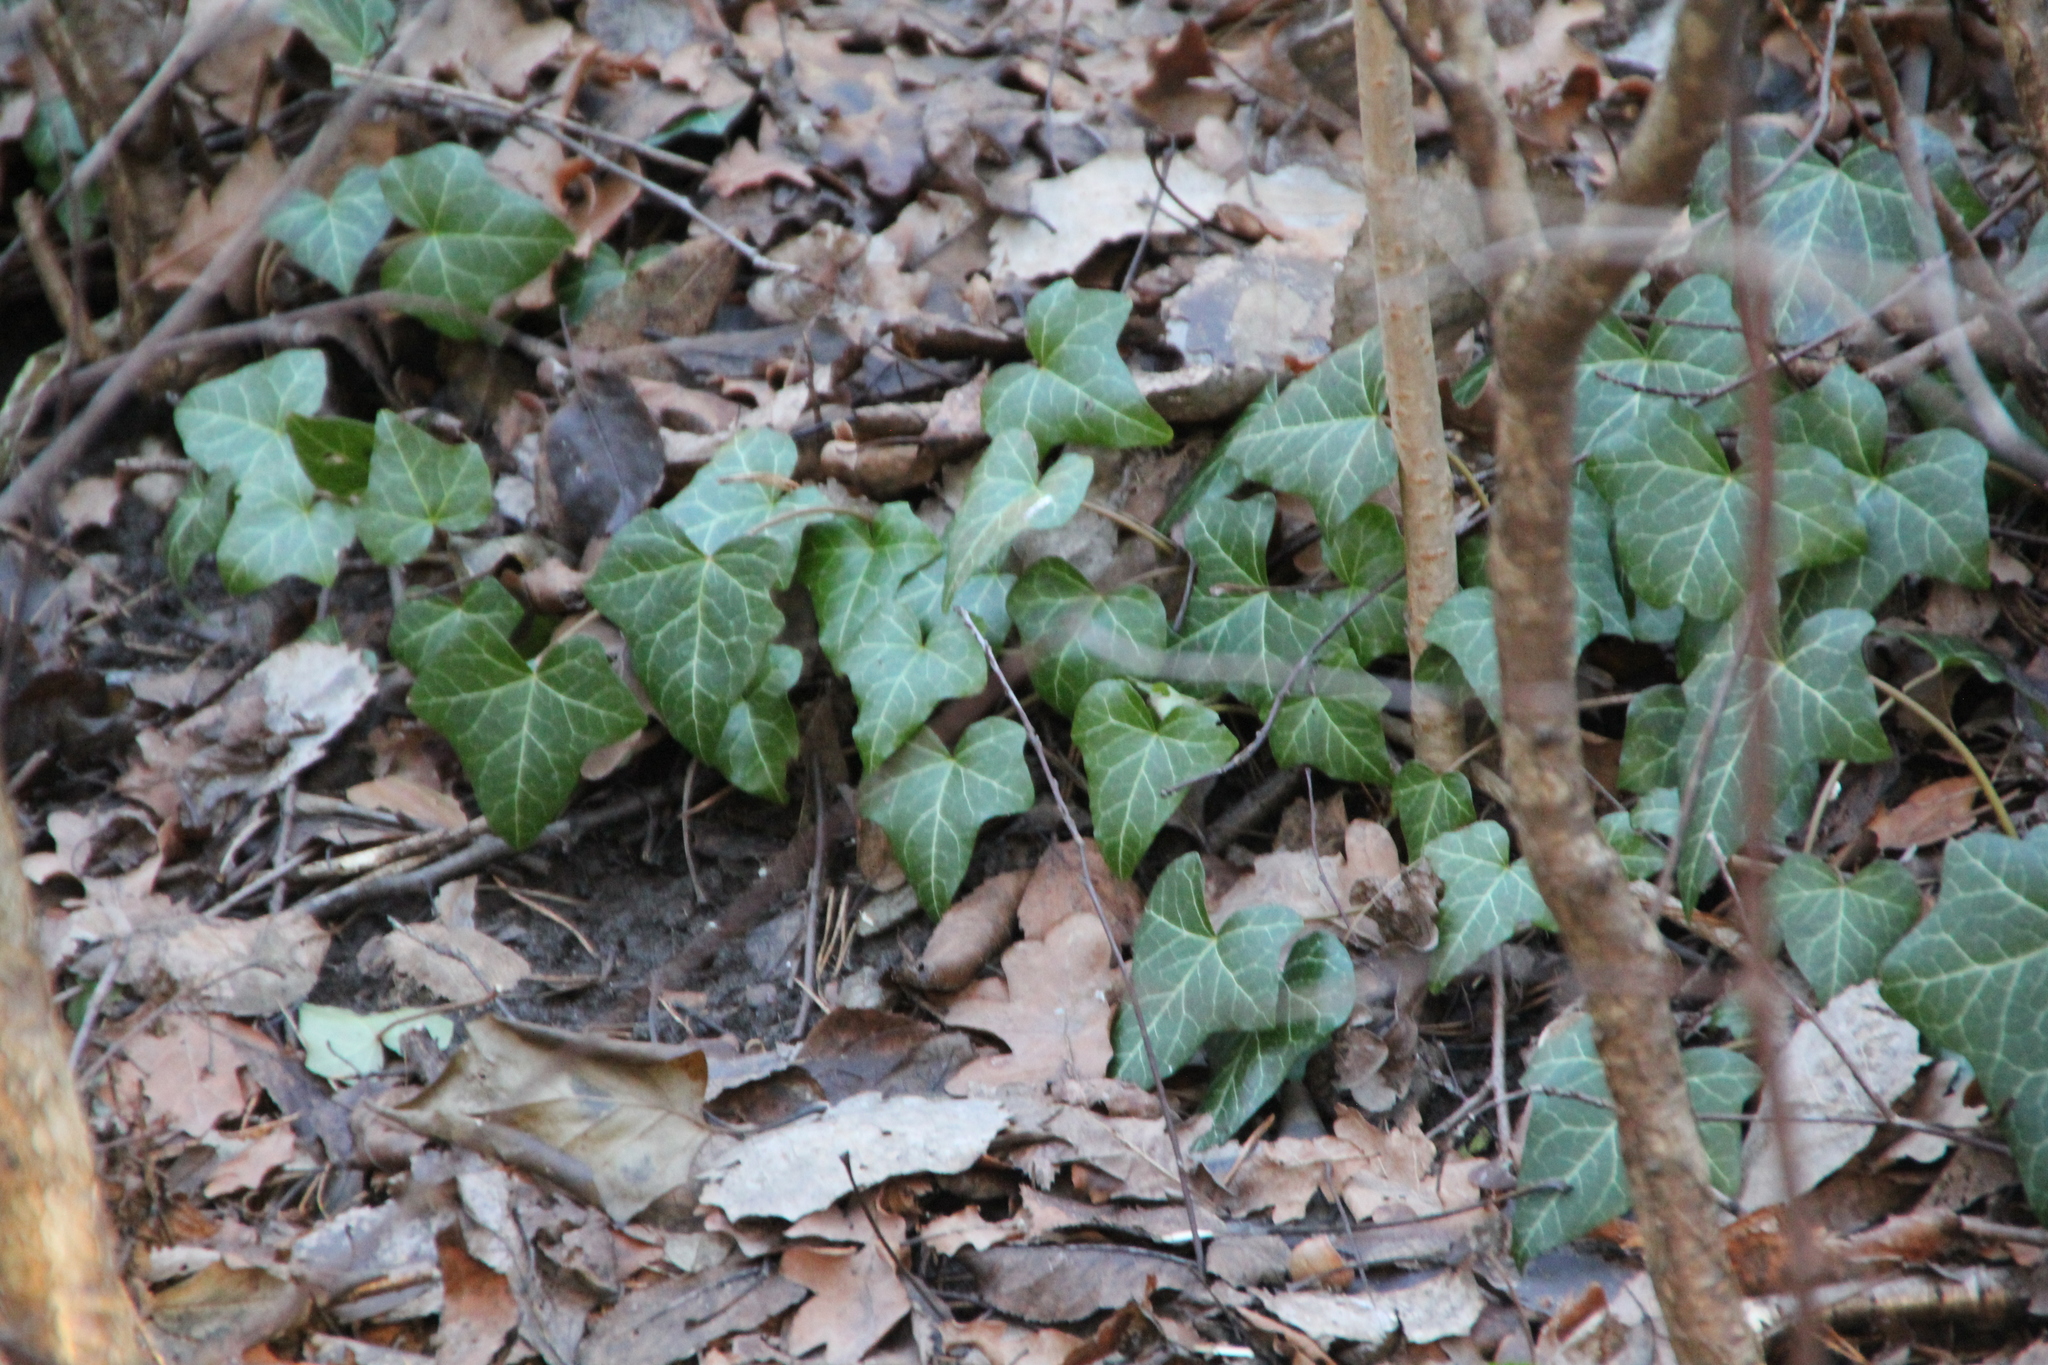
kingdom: Plantae
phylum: Tracheophyta
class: Magnoliopsida
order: Apiales
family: Araliaceae
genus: Hedera
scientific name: Hedera helix
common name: Ivy
